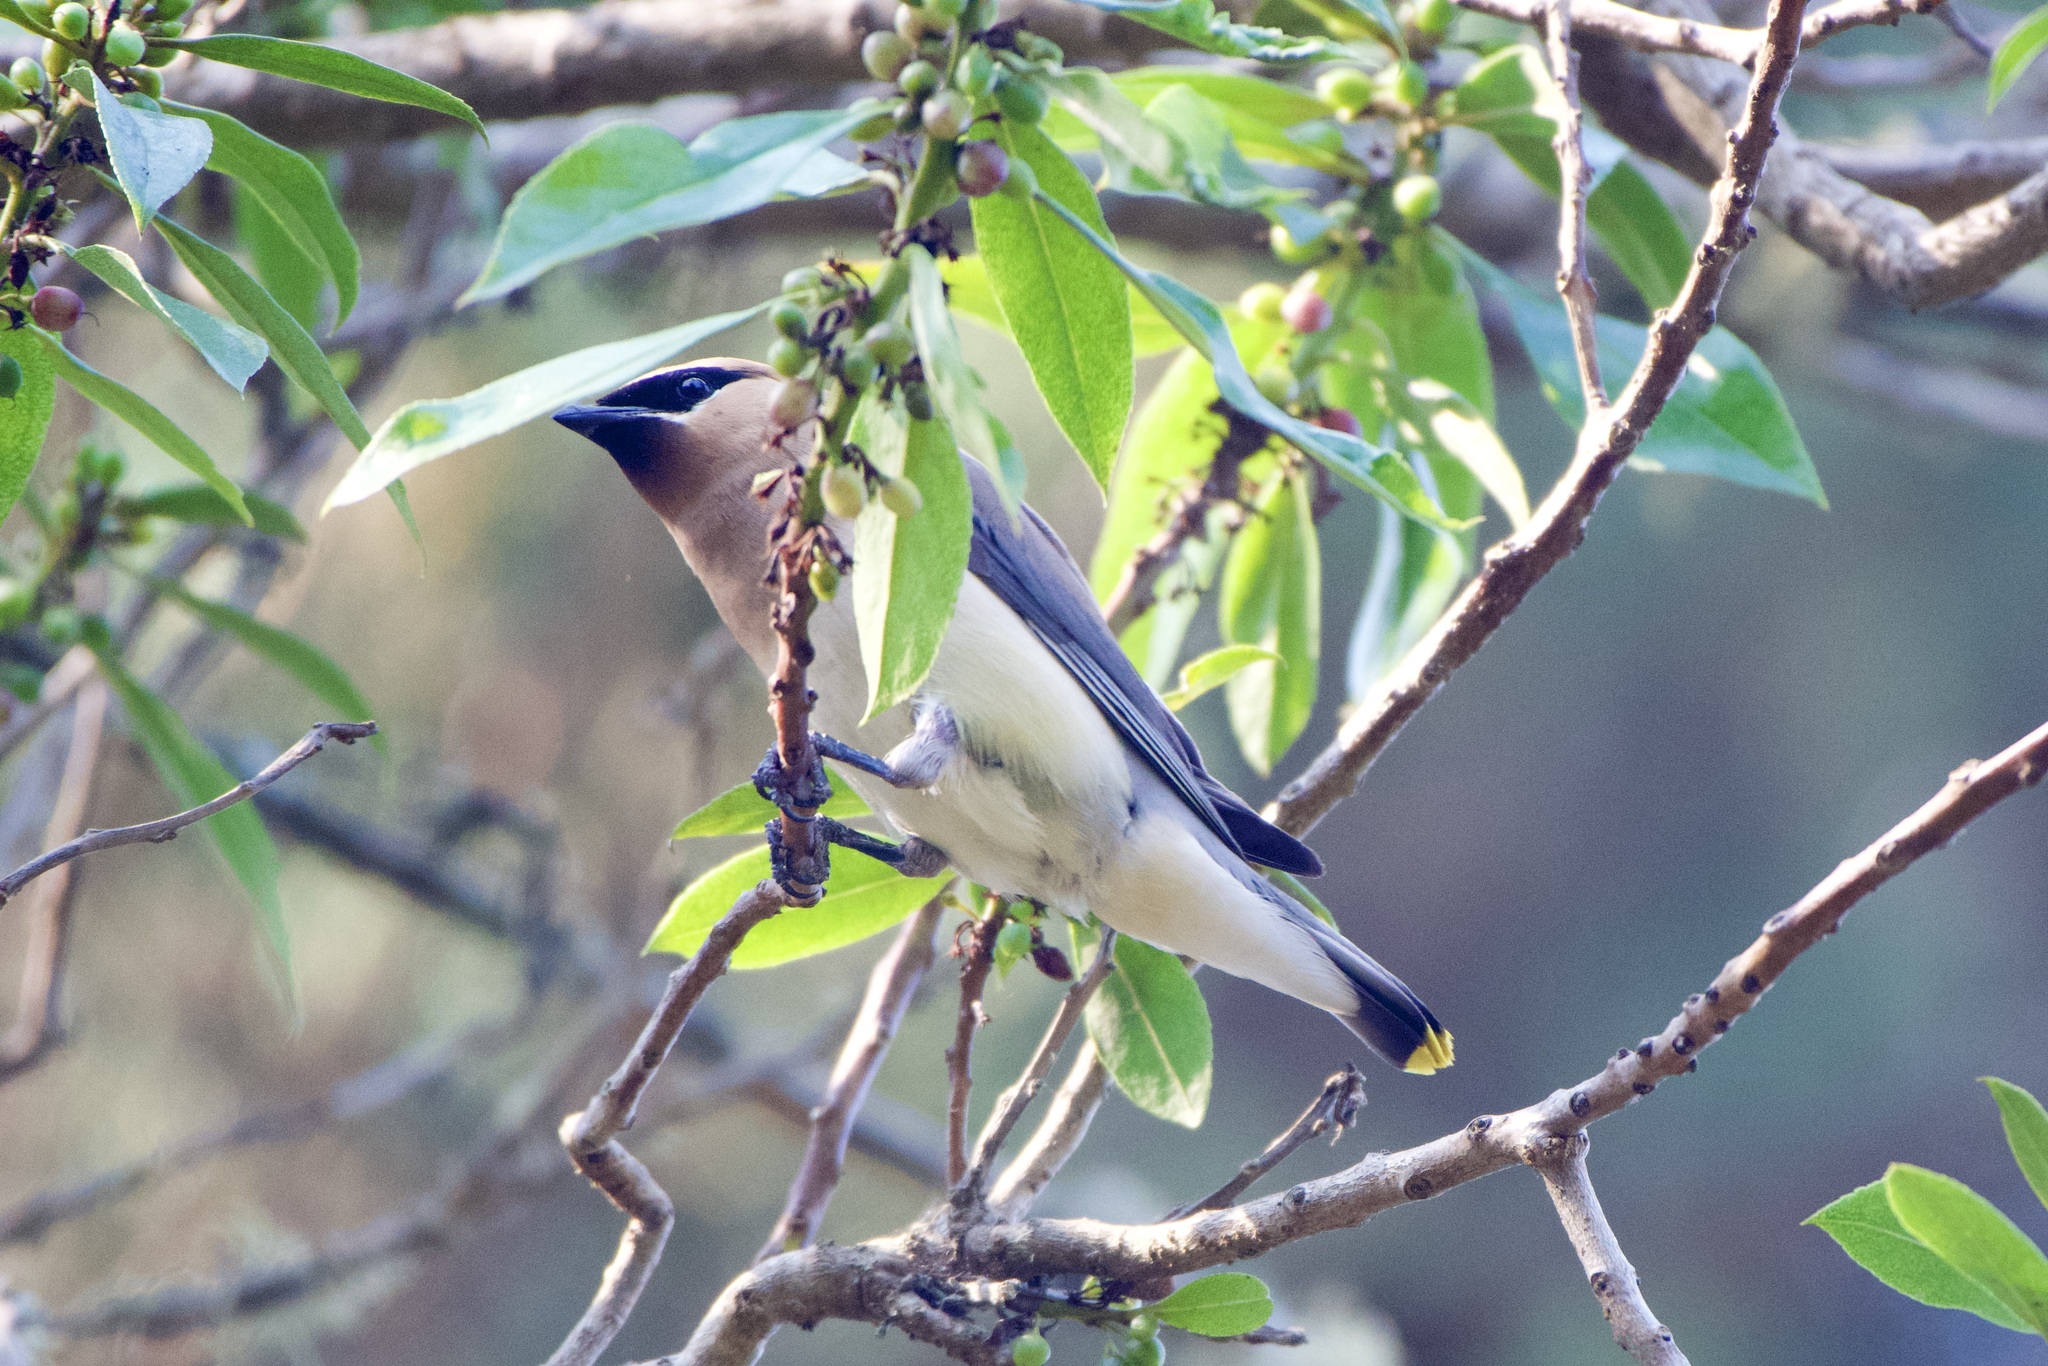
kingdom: Animalia
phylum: Chordata
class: Aves
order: Passeriformes
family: Bombycillidae
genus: Bombycilla
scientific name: Bombycilla cedrorum
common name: Cedar waxwing
